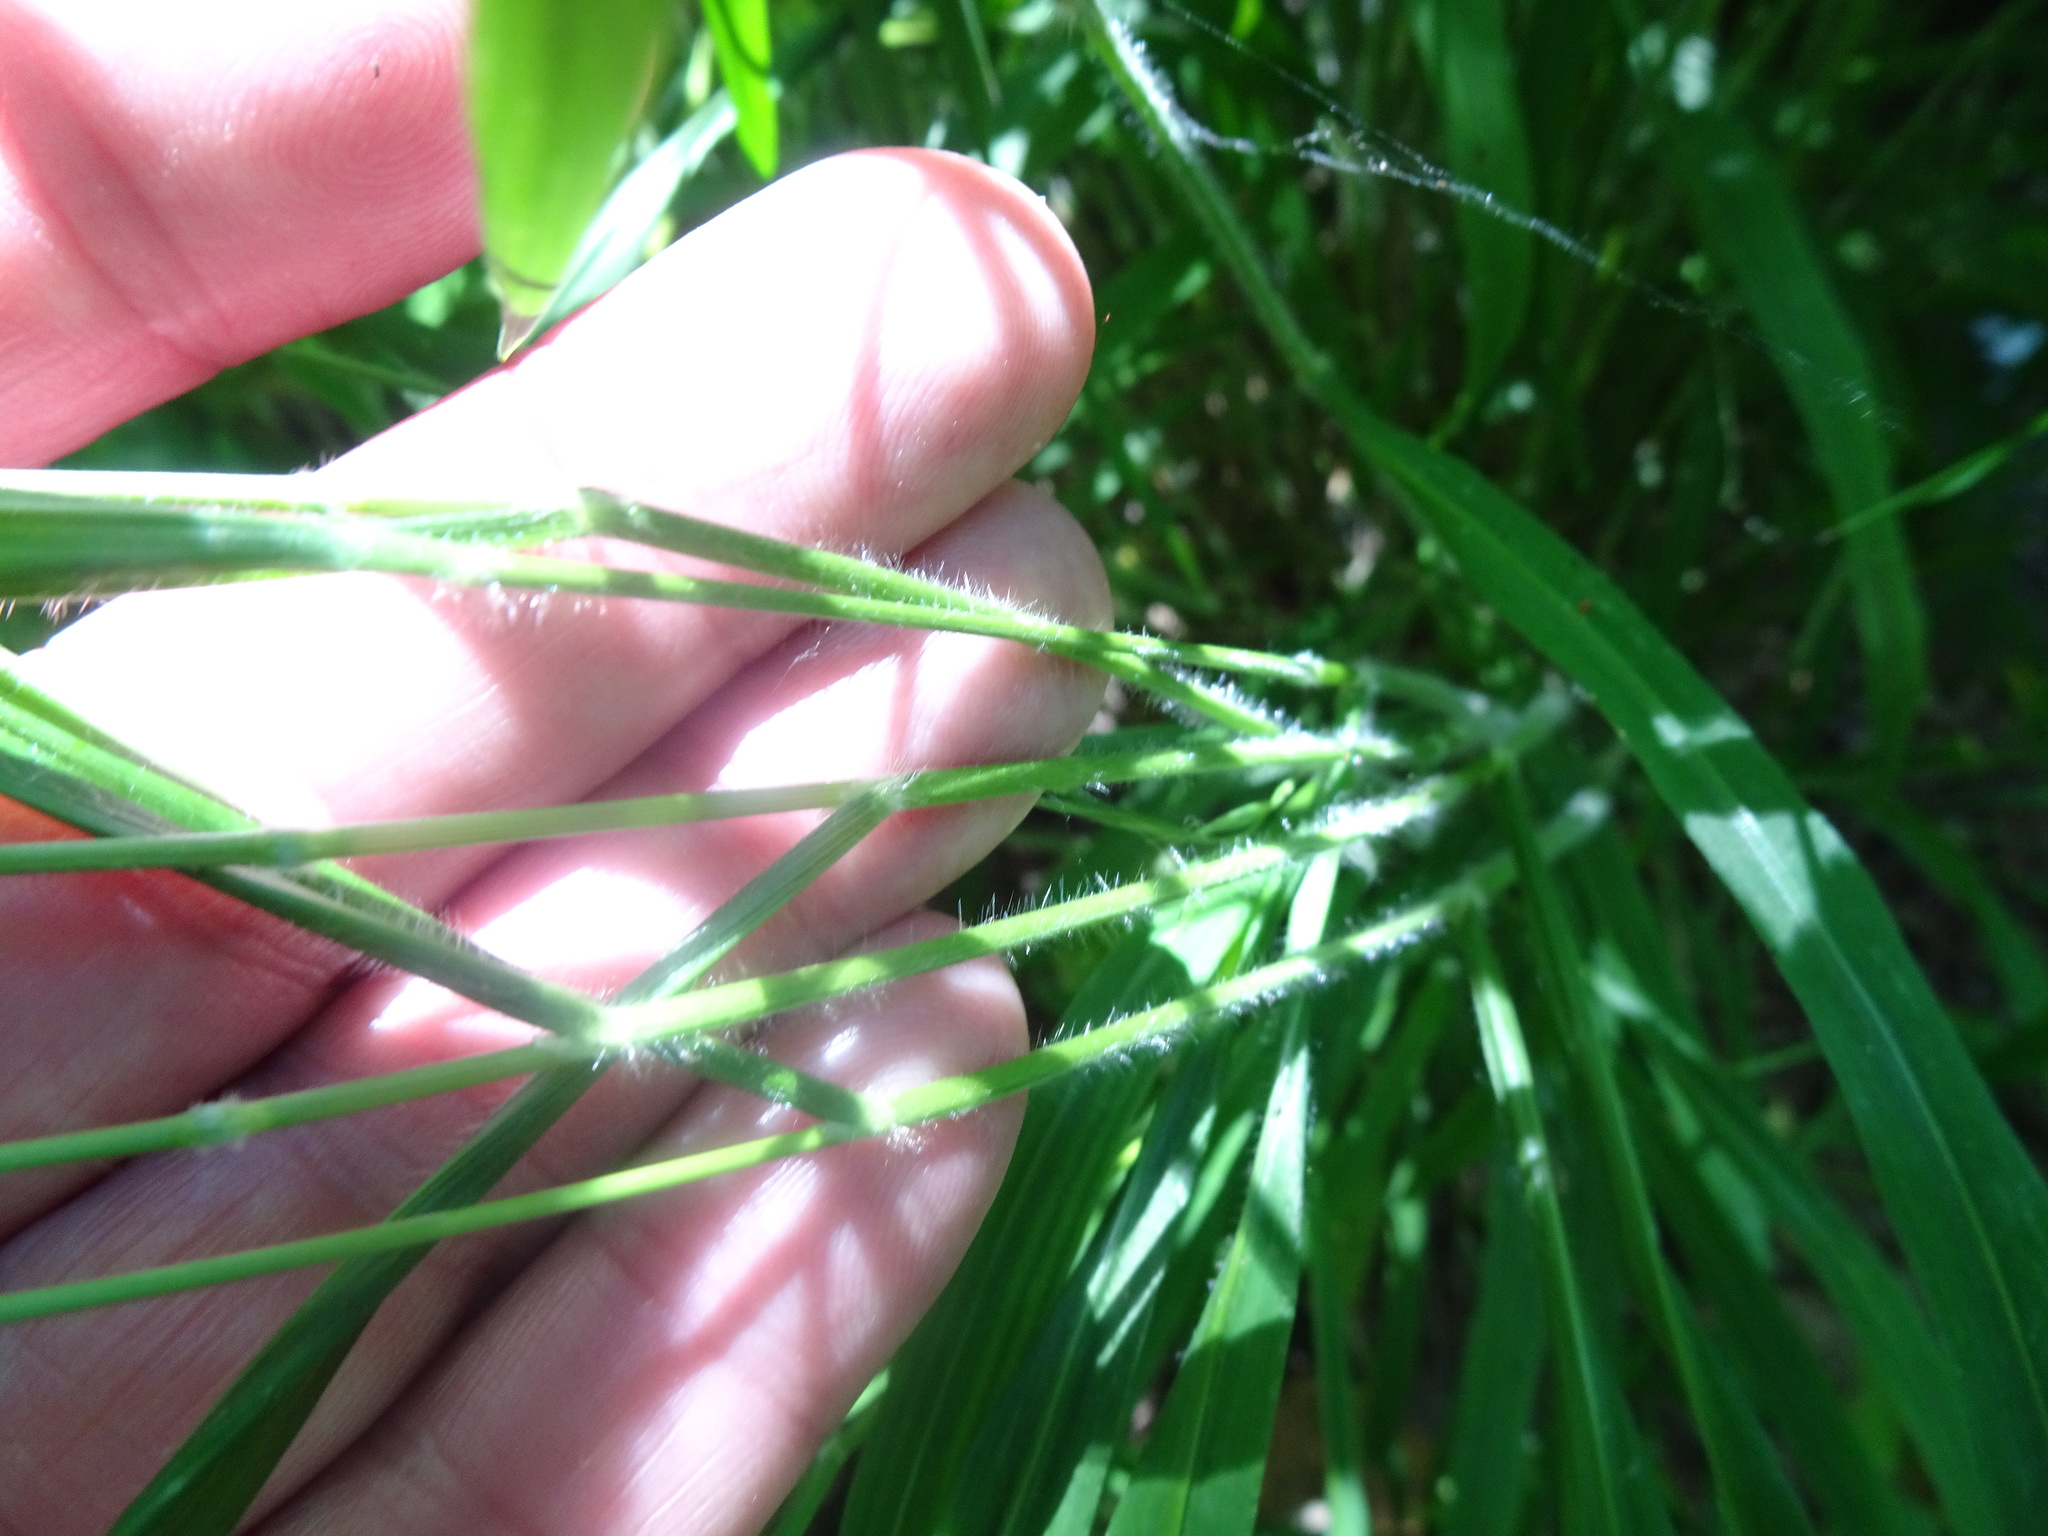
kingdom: Plantae
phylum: Tracheophyta
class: Liliopsida
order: Poales
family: Poaceae
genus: Brachypodium
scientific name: Brachypodium sylvaticum
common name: False-brome
